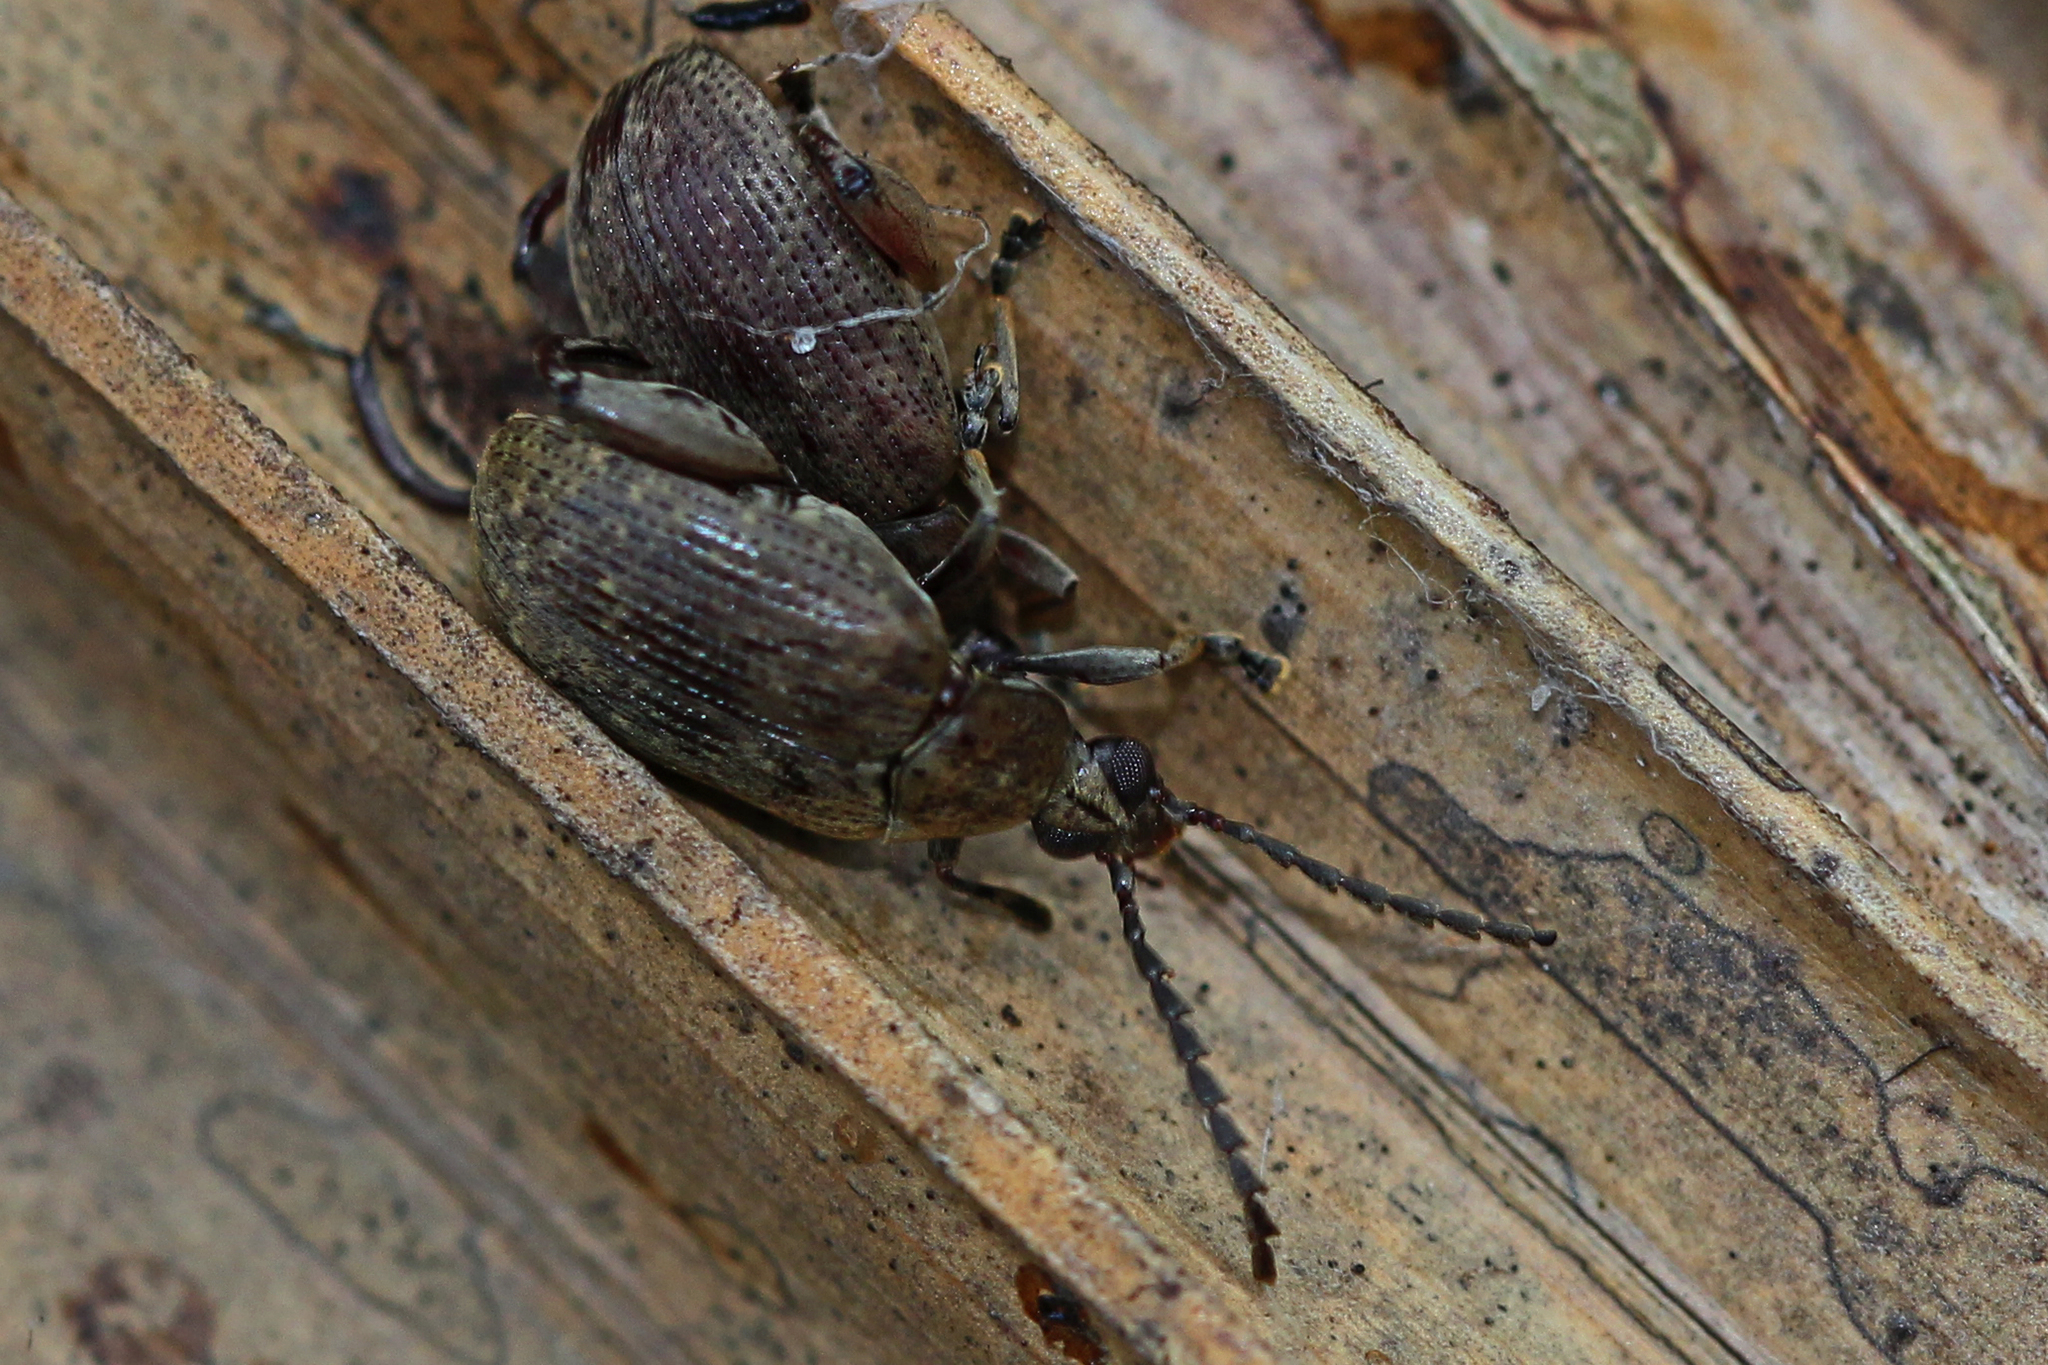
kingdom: Animalia
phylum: Arthropoda
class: Insecta
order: Coleoptera
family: Chrysomelidae
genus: Caryobruchus
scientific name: Caryobruchus gleditsiae
